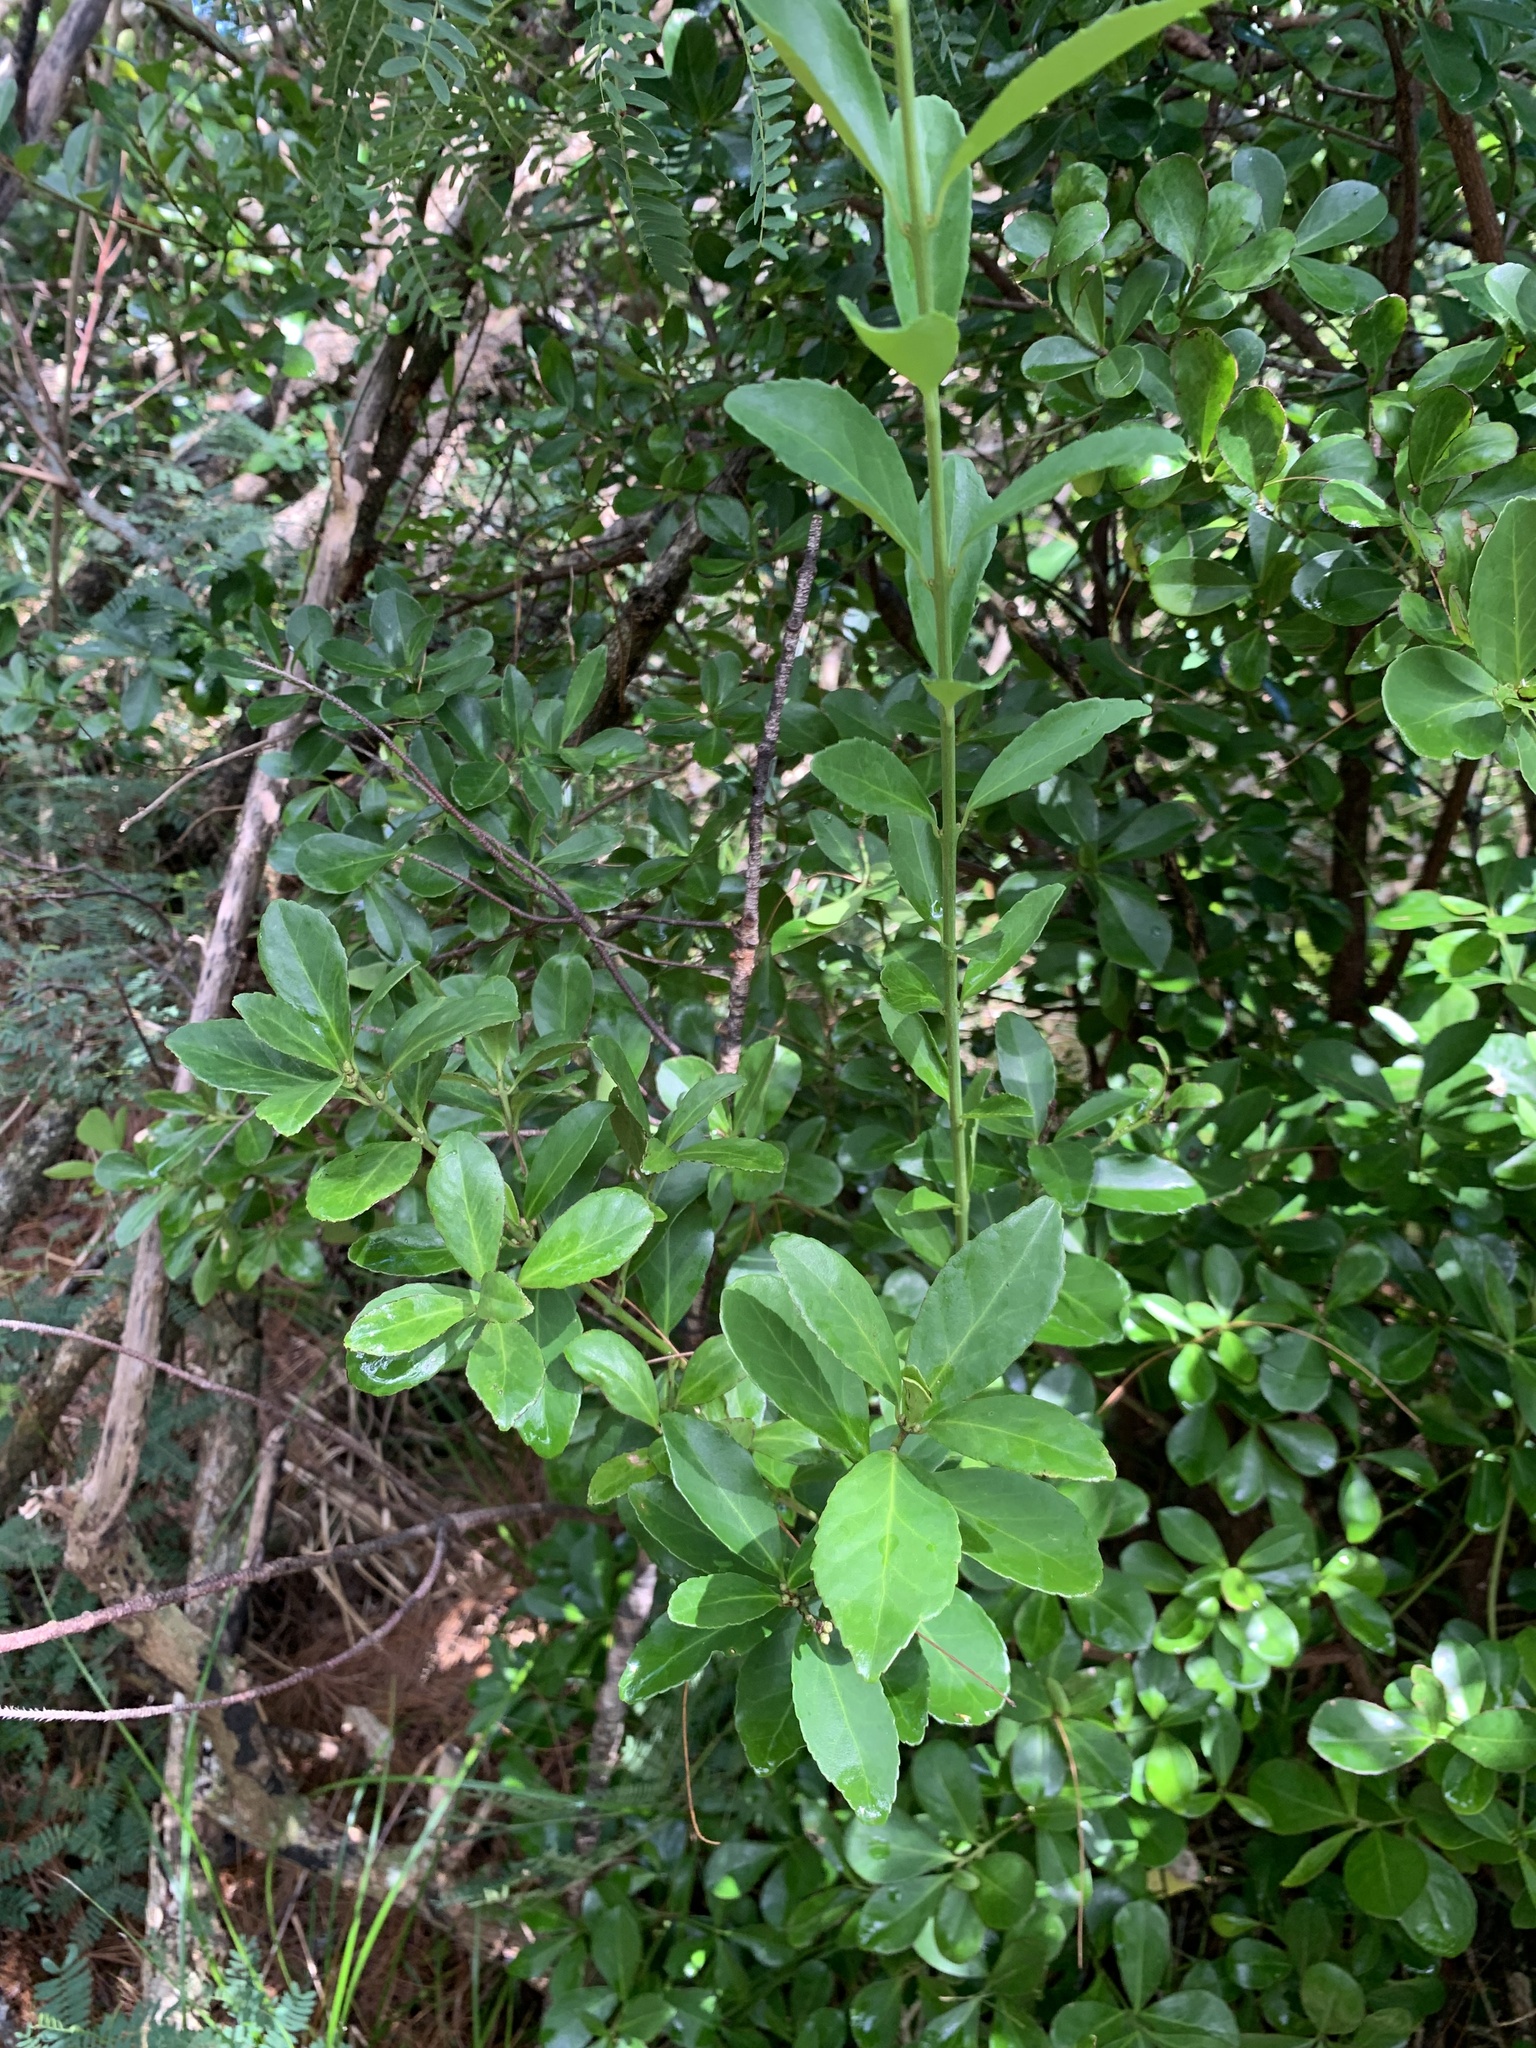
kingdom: Plantae
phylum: Tracheophyta
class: Magnoliopsida
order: Celastrales
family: Celastraceae
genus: Euonymus
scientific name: Euonymus boninensis
